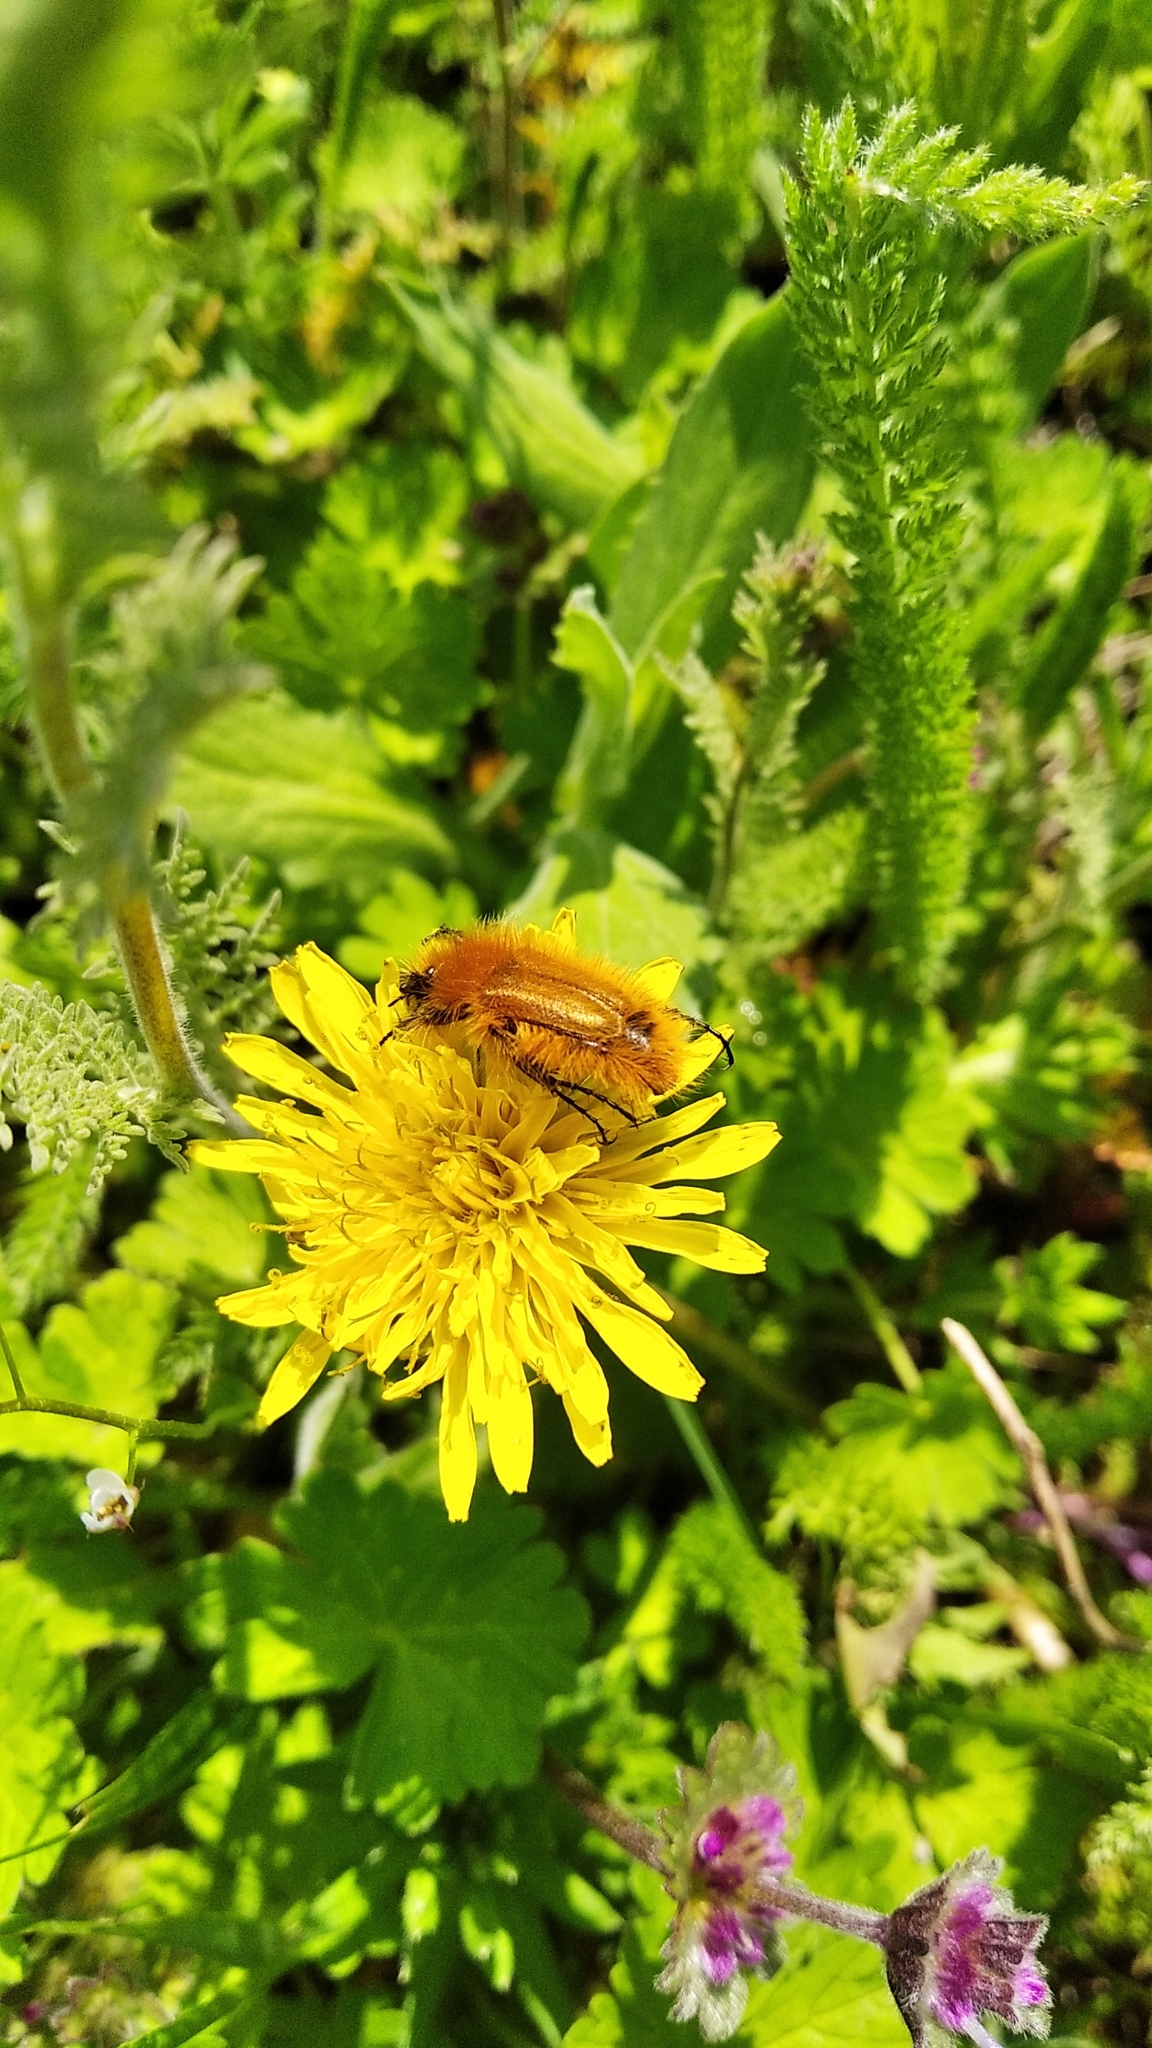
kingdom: Animalia
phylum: Arthropoda
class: Insecta
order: Coleoptera
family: Glaphyridae
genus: Pygopleurus
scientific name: Pygopleurus vulpes
